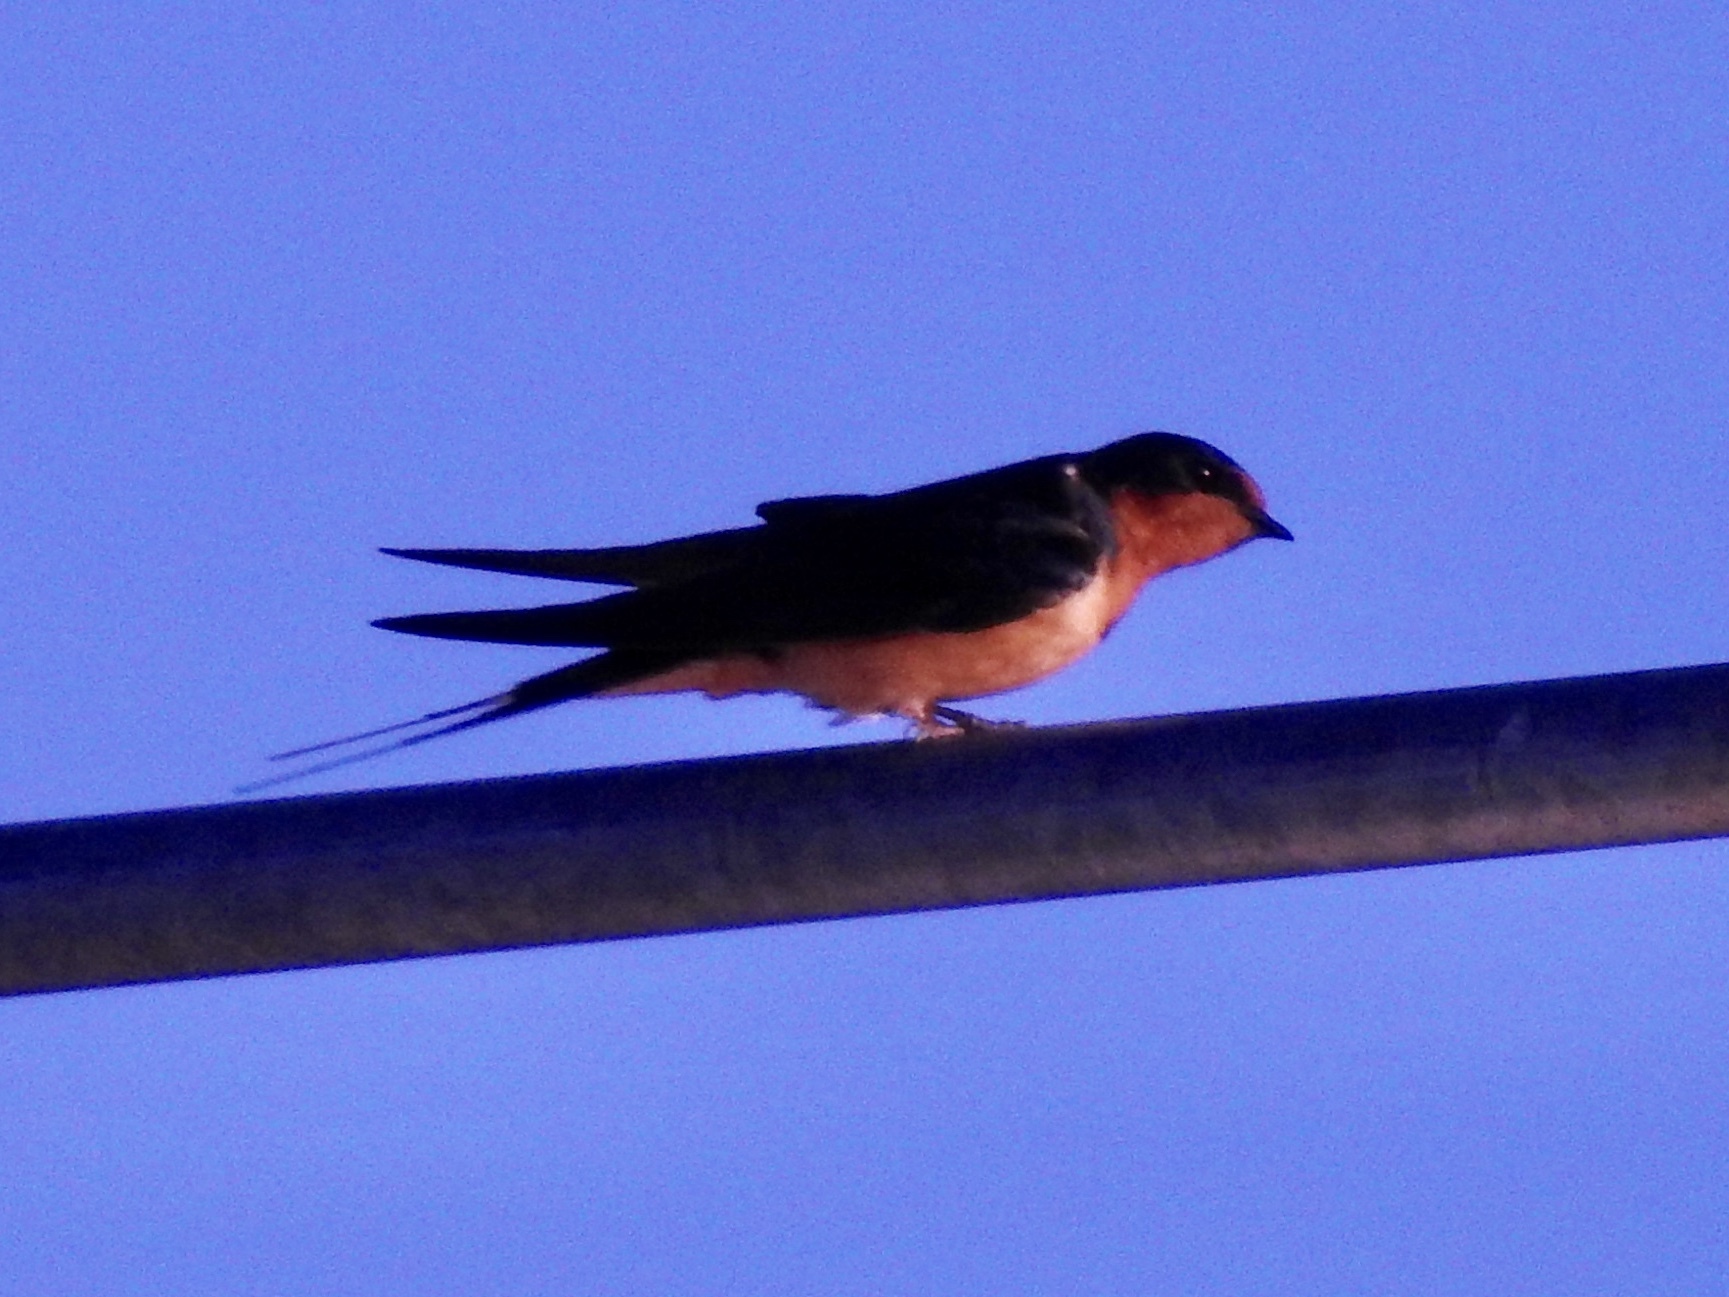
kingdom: Animalia
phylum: Chordata
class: Aves
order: Passeriformes
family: Hirundinidae
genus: Hirundo
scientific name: Hirundo rustica
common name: Barn swallow
